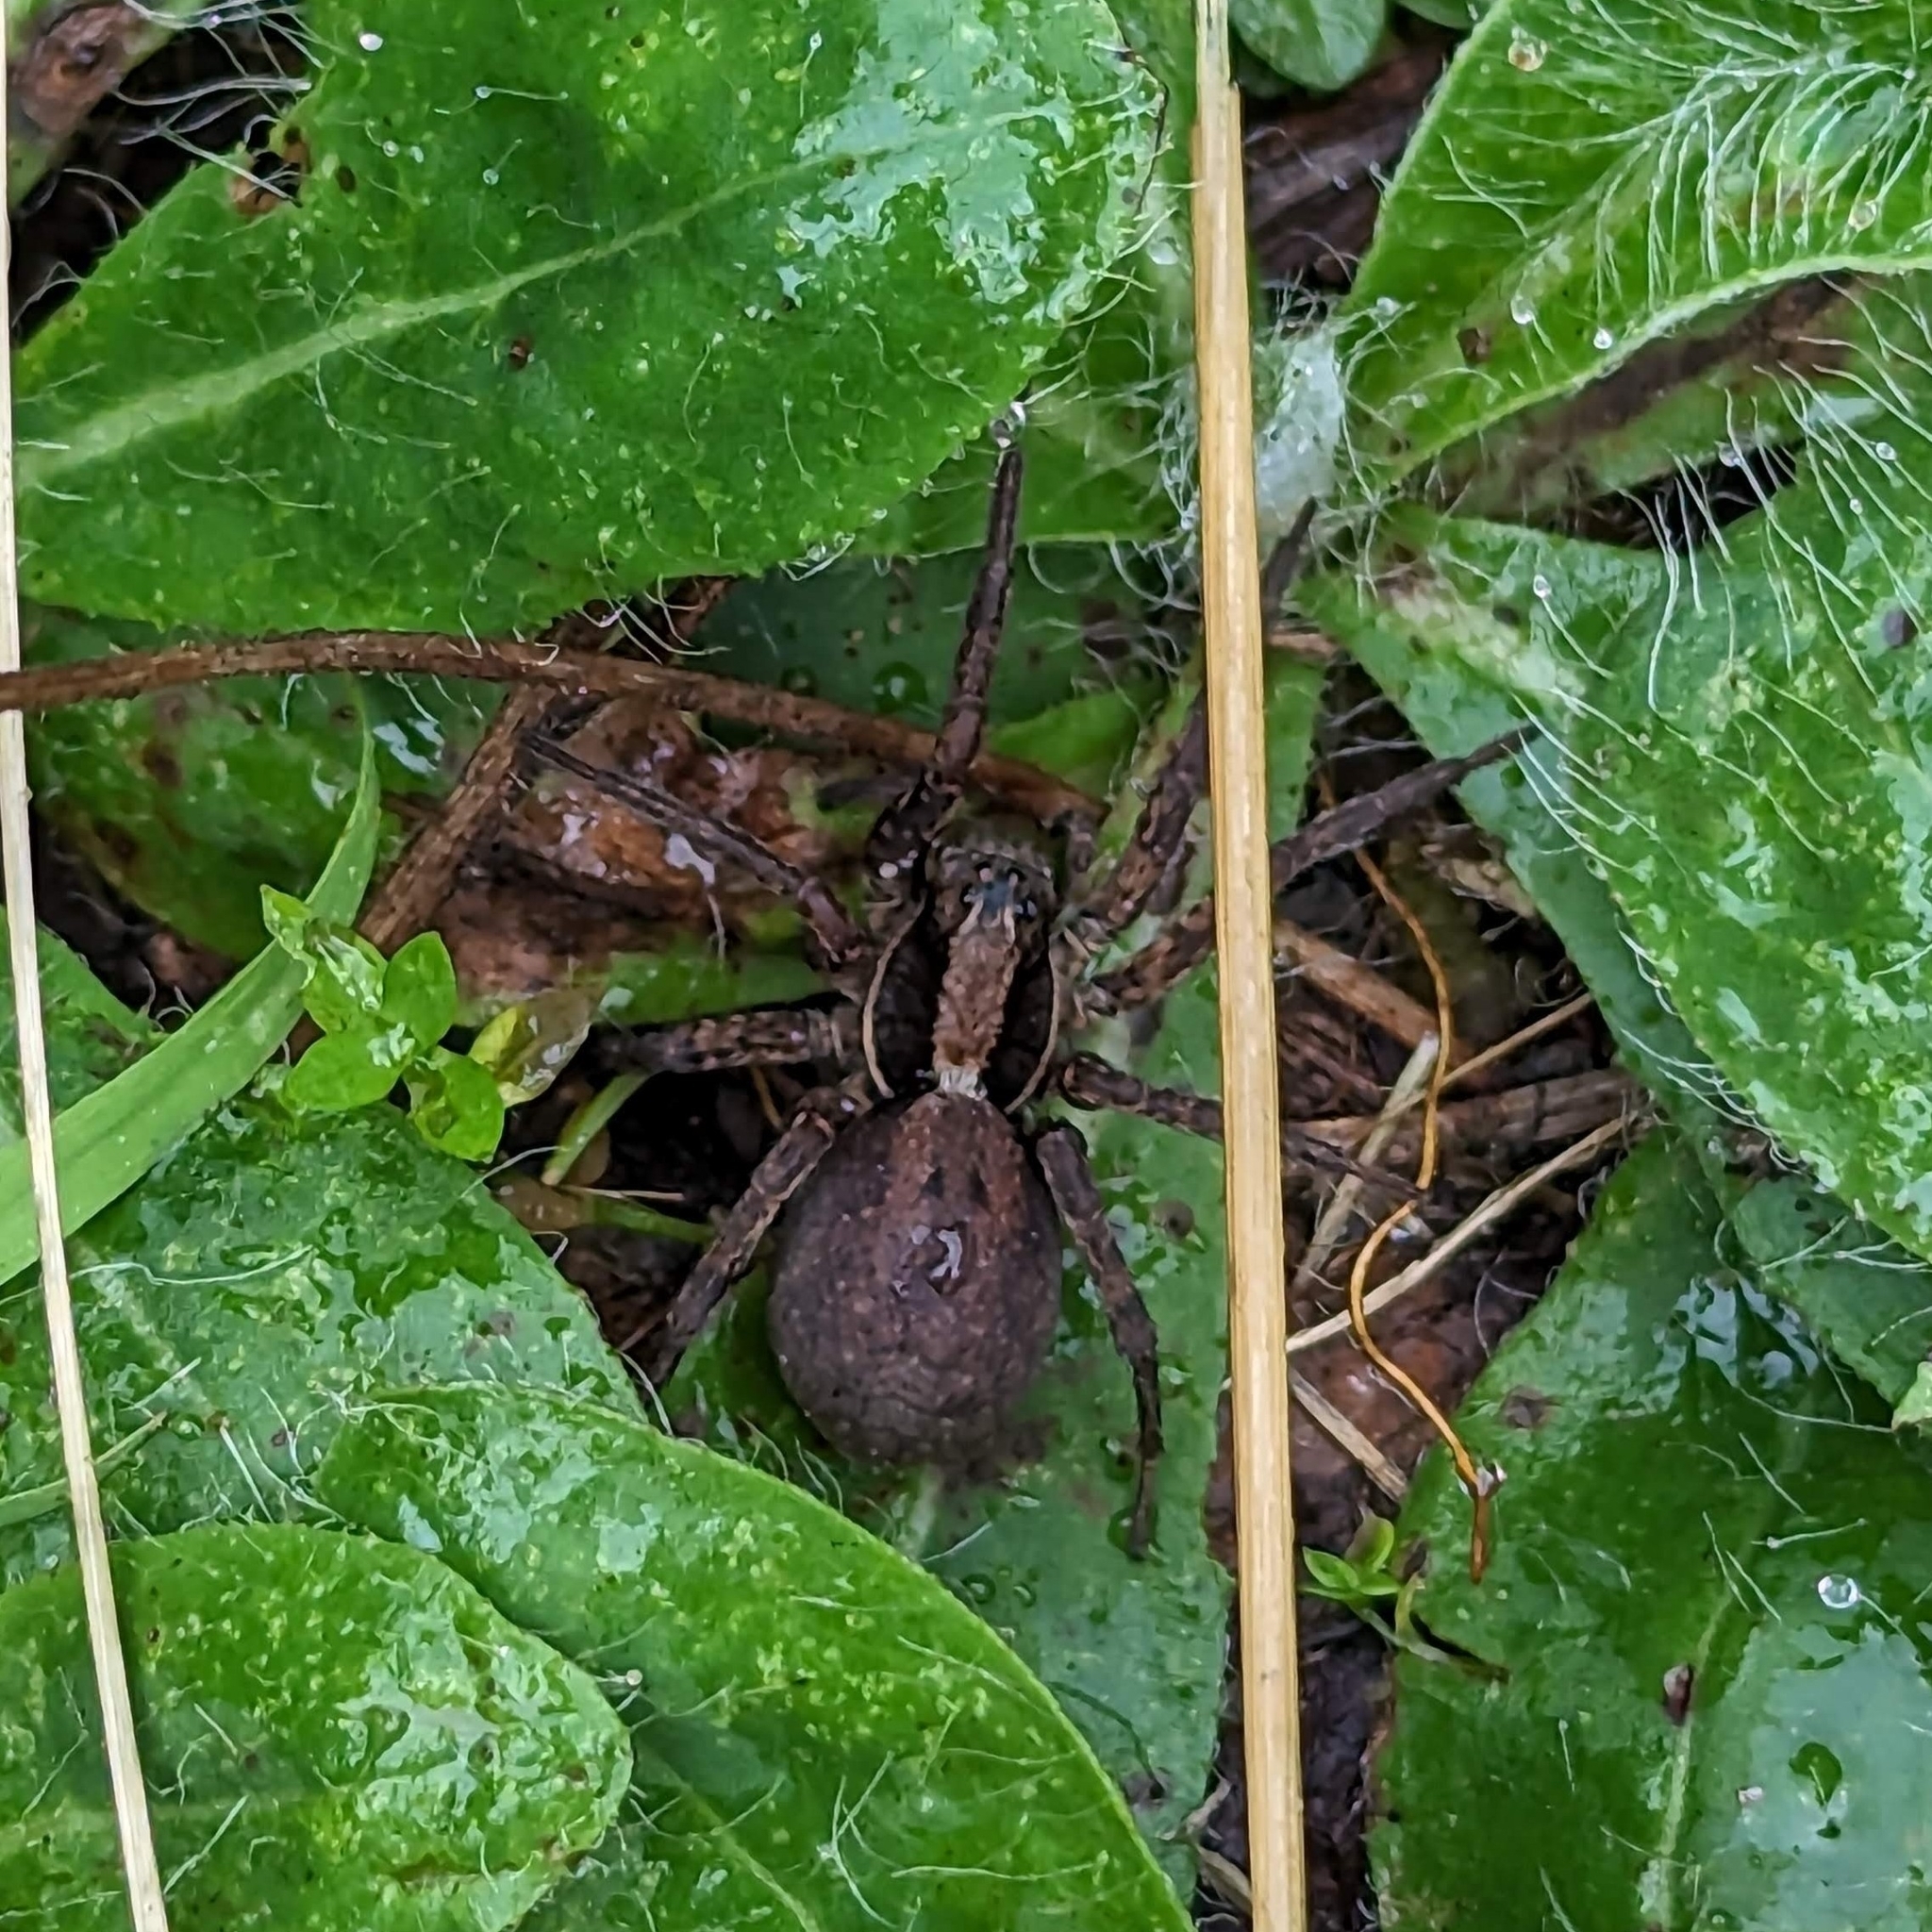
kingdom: Animalia
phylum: Arthropoda
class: Arachnida
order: Araneae
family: Lycosidae
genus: Hogna
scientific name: Hogna frondicola
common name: Forest wolf spider
